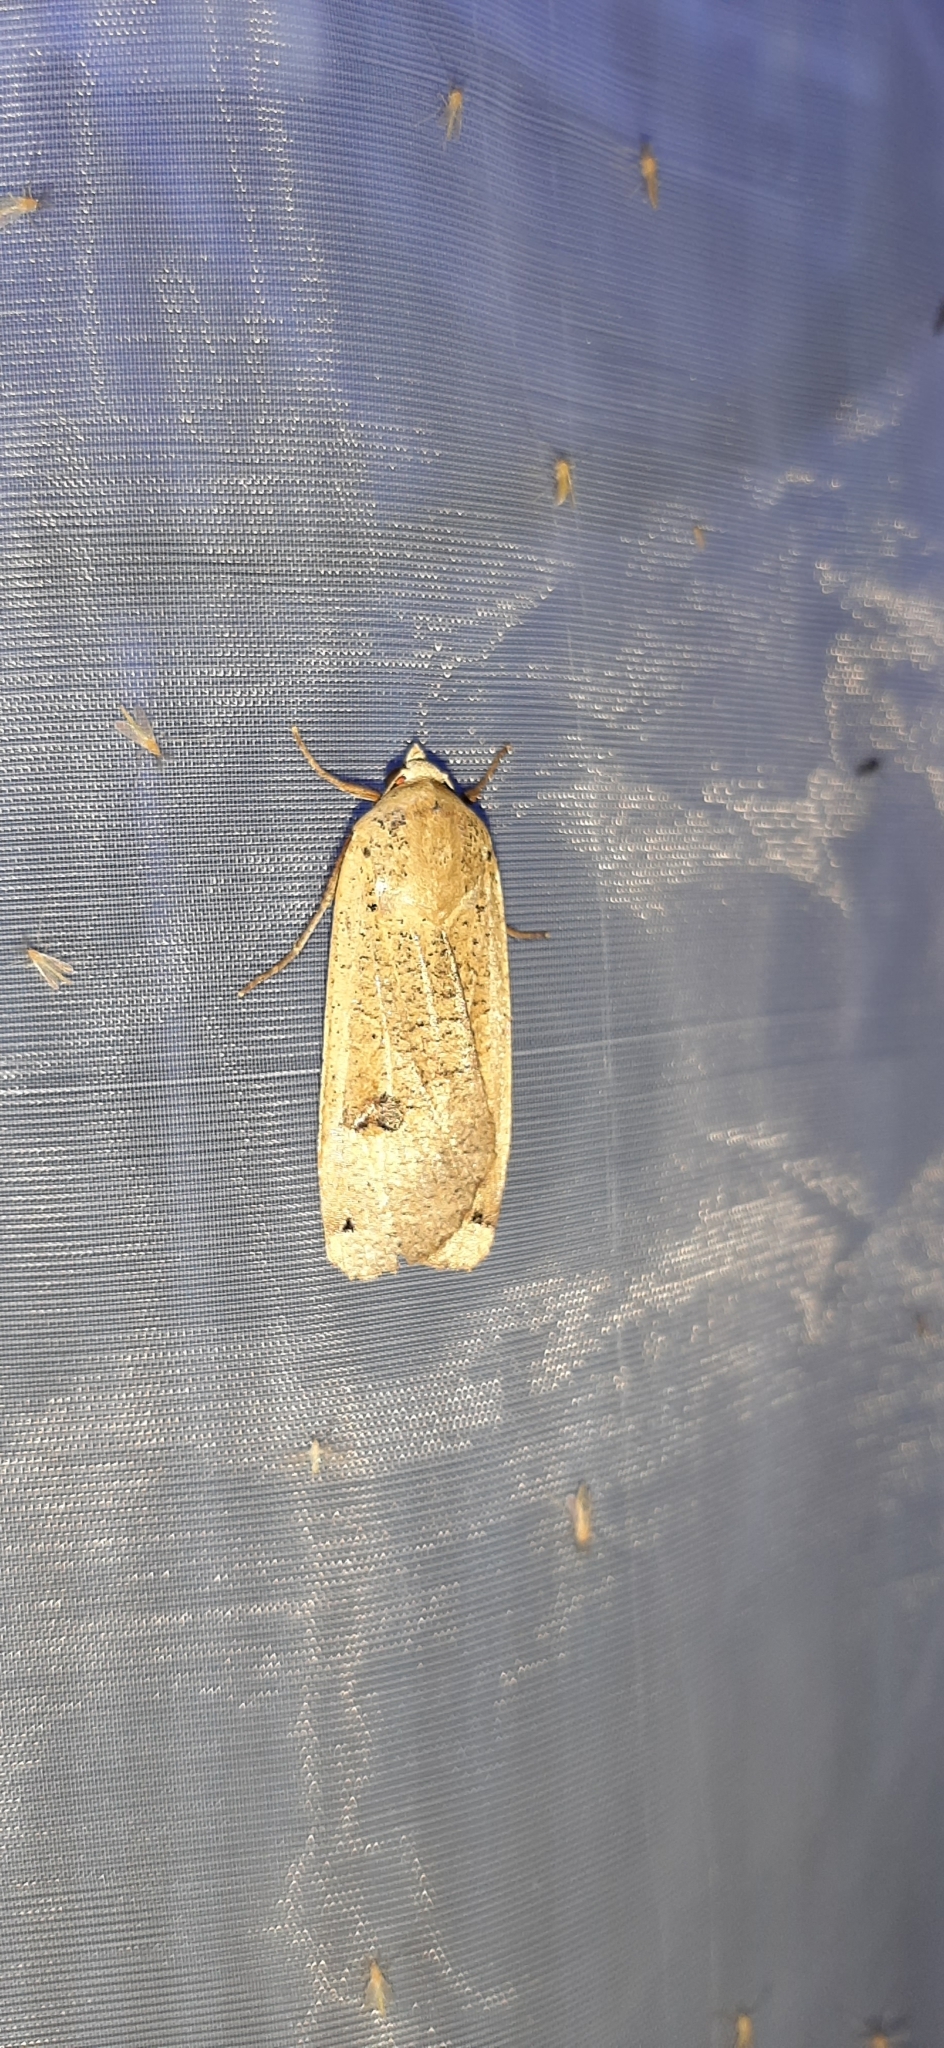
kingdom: Animalia
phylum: Arthropoda
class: Insecta
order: Lepidoptera
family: Noctuidae
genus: Noctua
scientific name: Noctua pronuba
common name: Large yellow underwing
